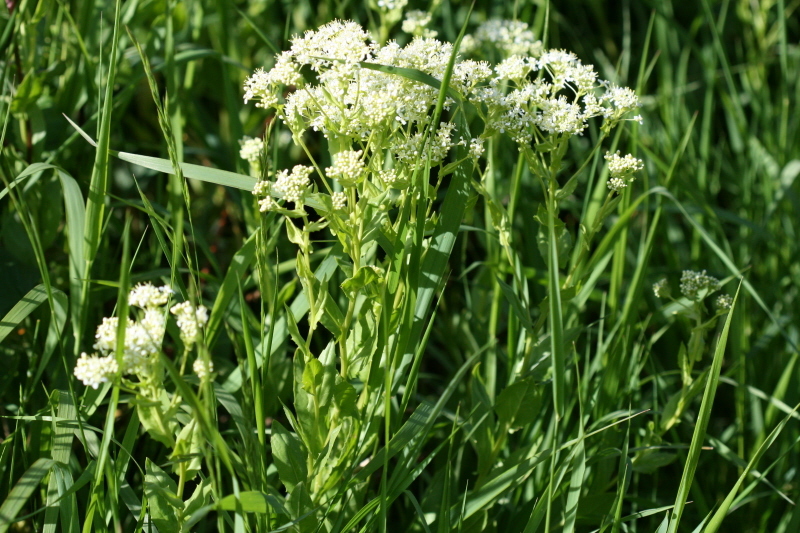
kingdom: Plantae
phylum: Tracheophyta
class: Magnoliopsida
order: Brassicales
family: Brassicaceae
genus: Lepidium
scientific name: Lepidium draba
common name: Hoary cress
